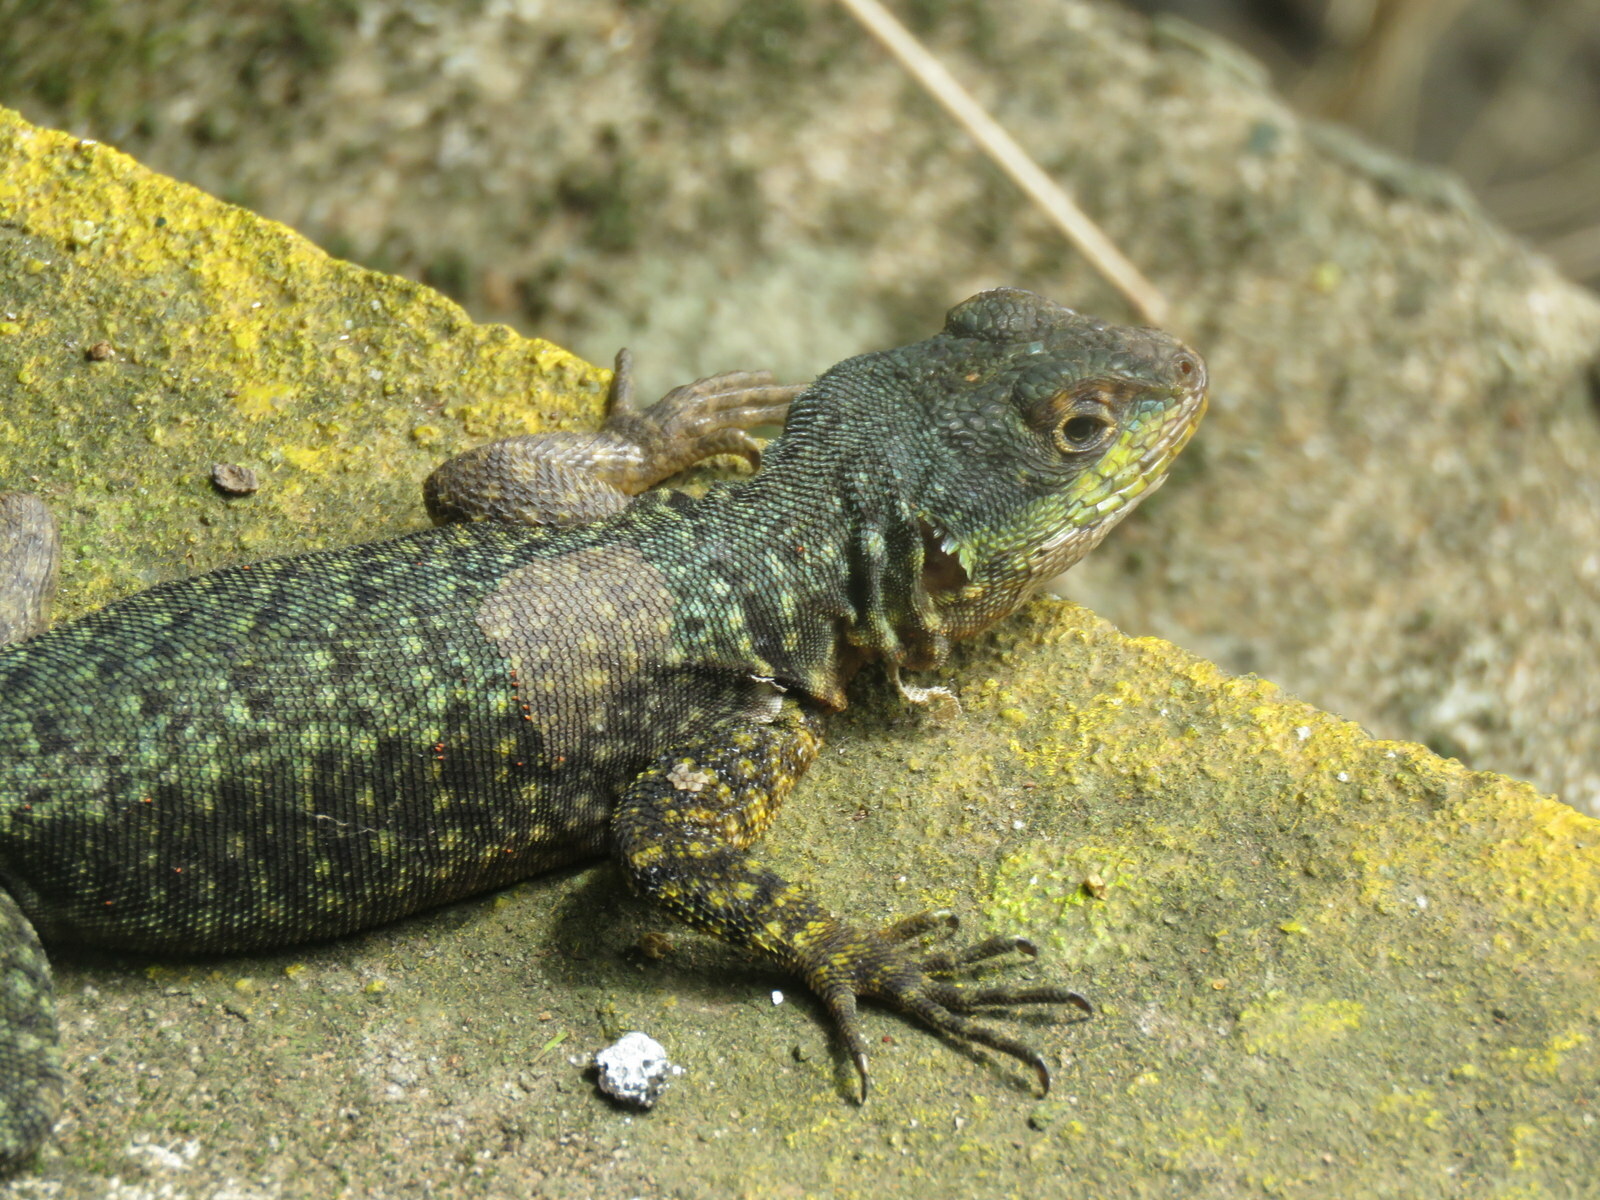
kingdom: Animalia
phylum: Chordata
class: Squamata
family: Tropiduridae
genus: Tropidurus
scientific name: Tropidurus catalanensis
